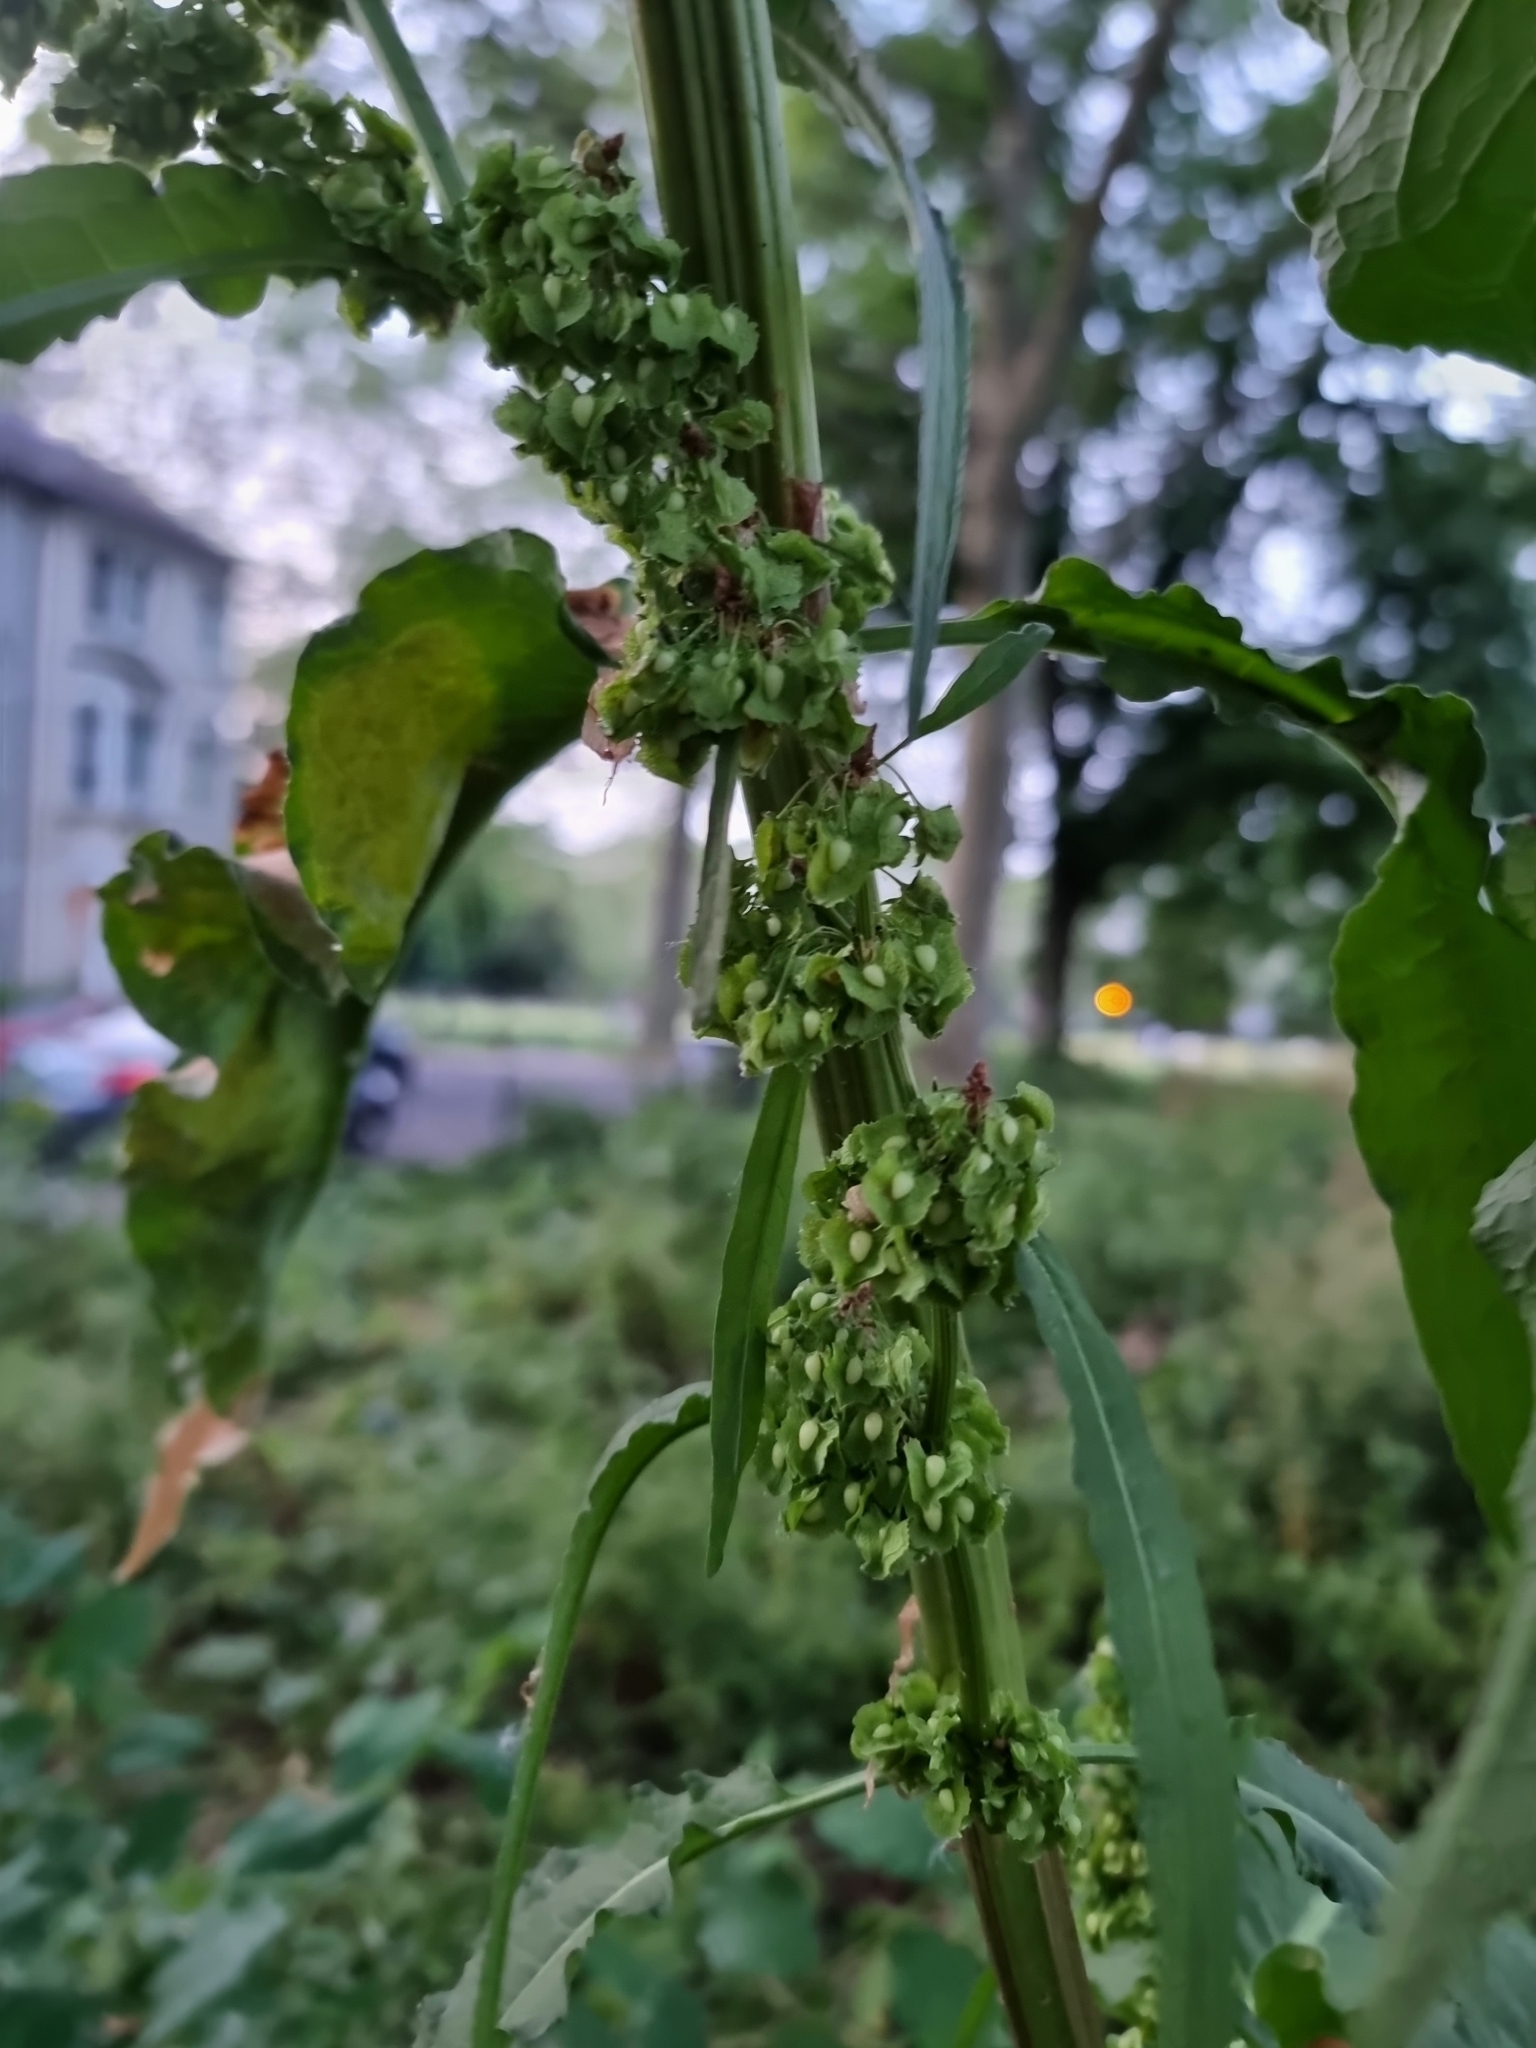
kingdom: Plantae
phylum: Tracheophyta
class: Magnoliopsida
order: Caryophyllales
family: Polygonaceae
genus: Rumex
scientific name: Rumex cristatus
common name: Greek dock
